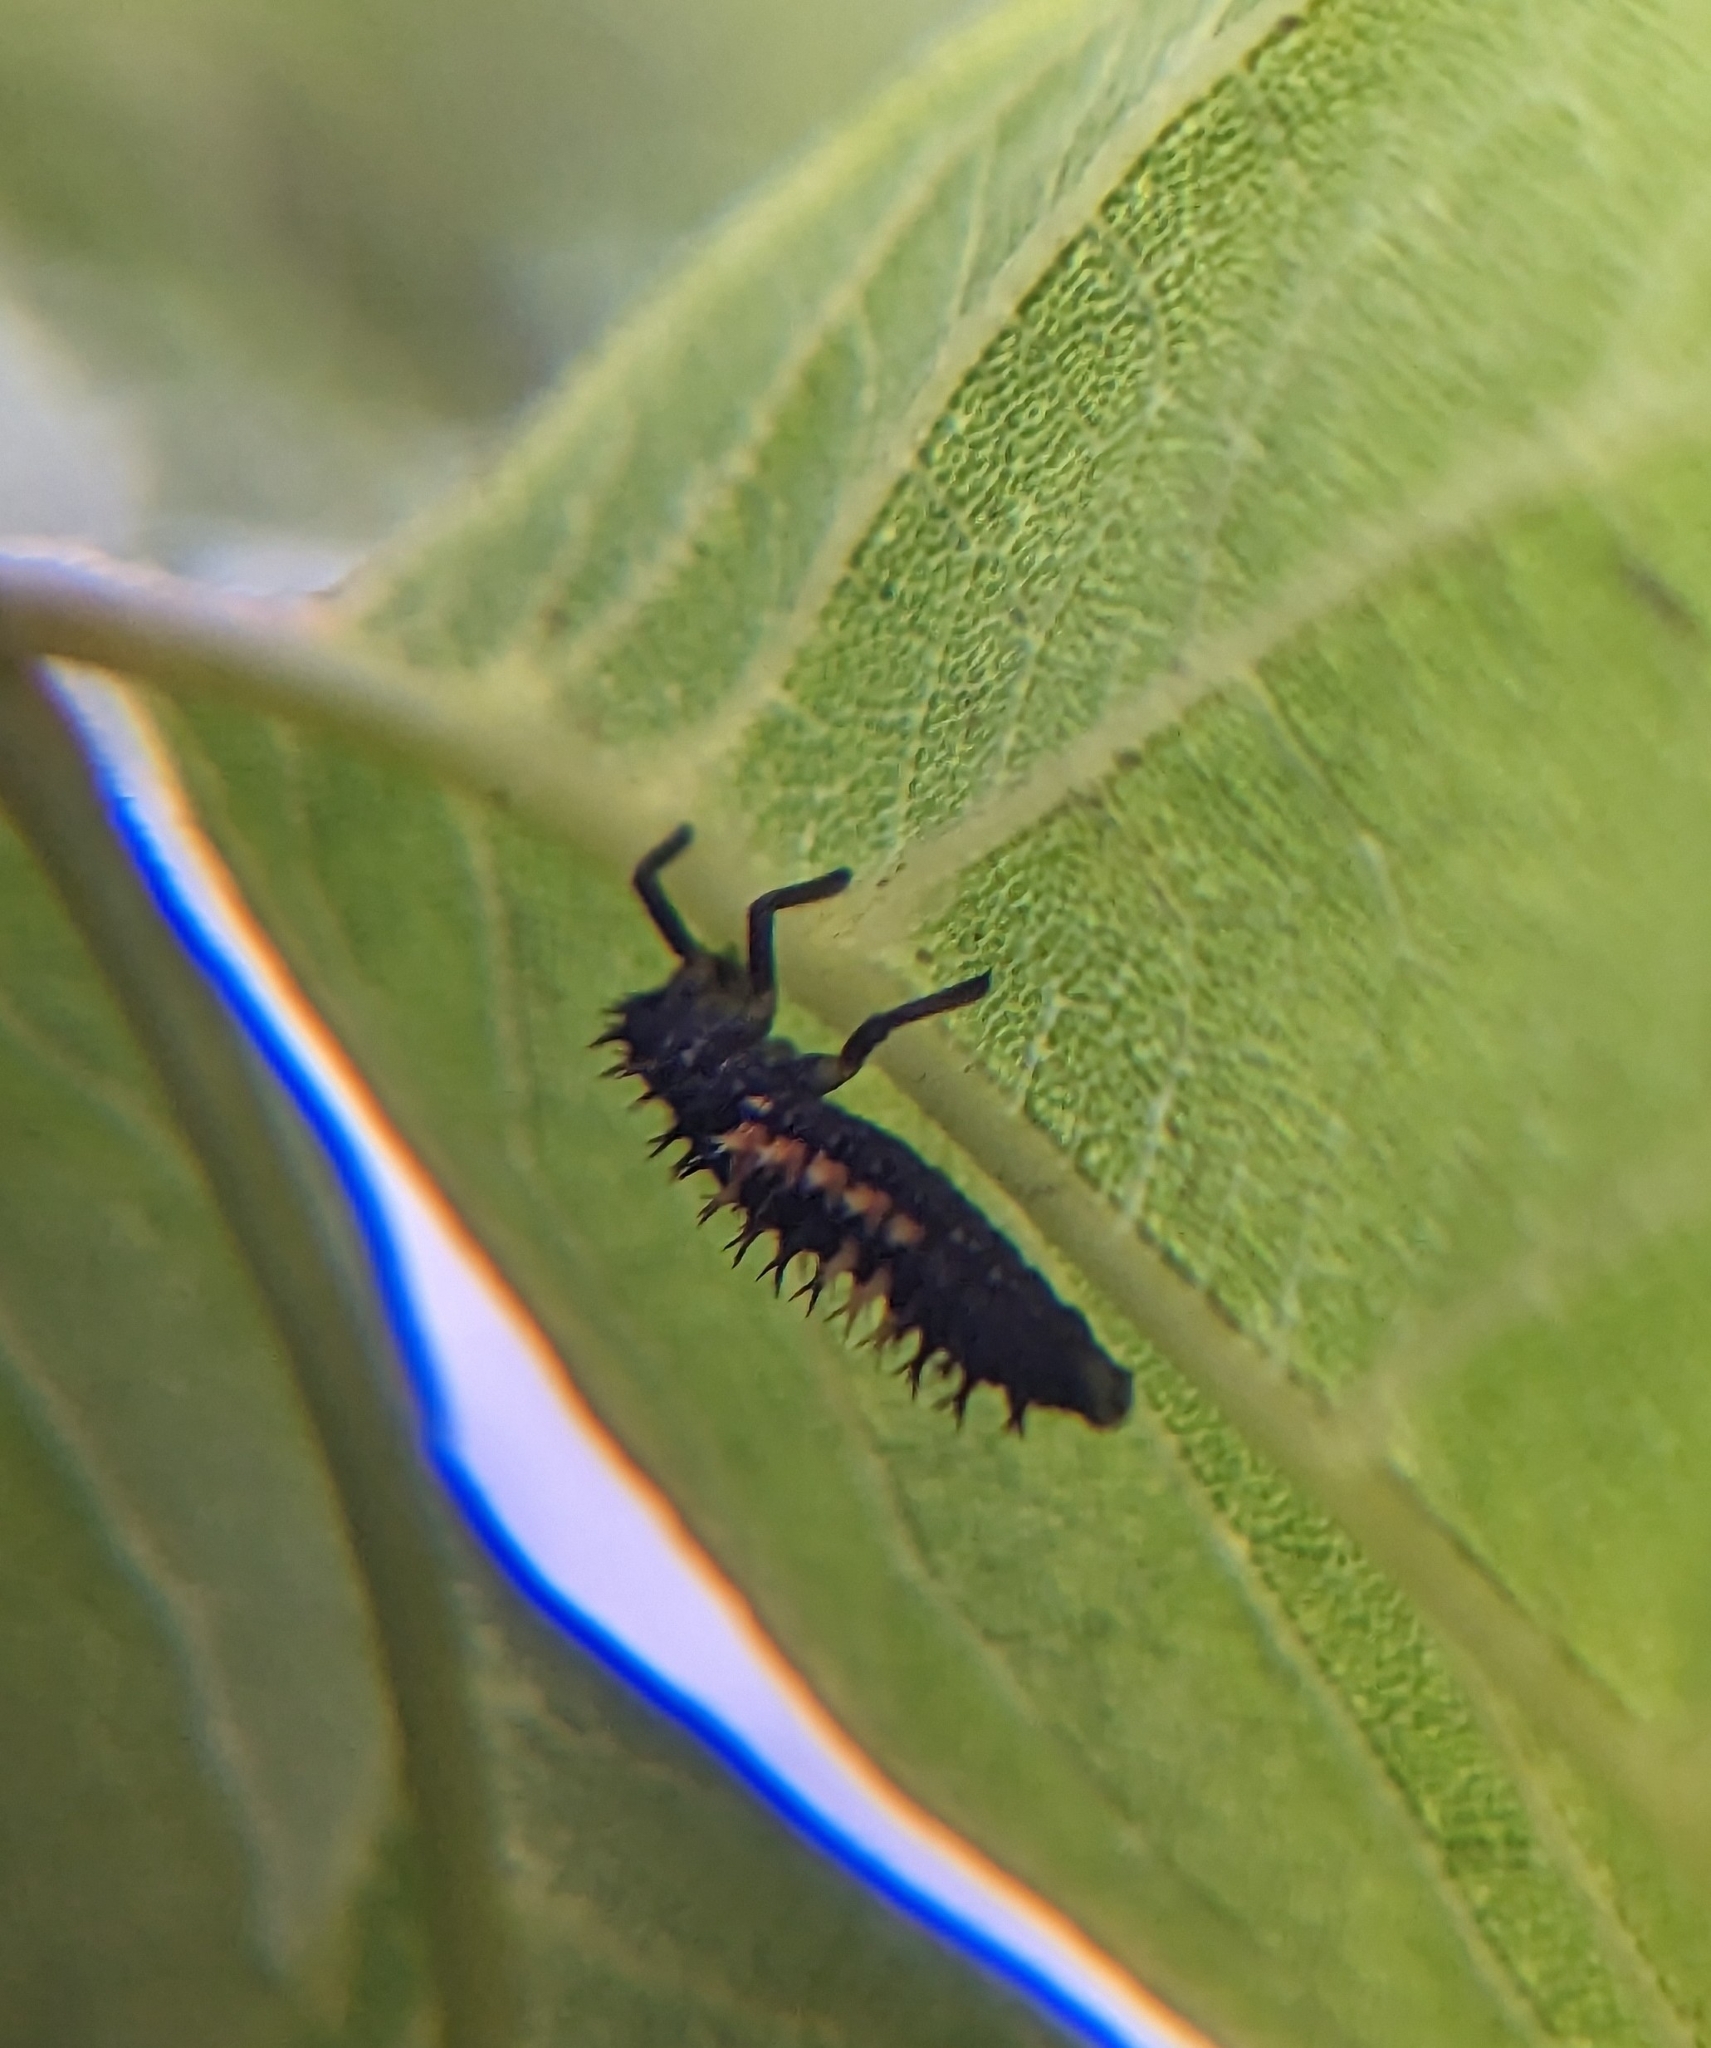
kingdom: Animalia
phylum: Arthropoda
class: Insecta
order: Coleoptera
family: Coccinellidae
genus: Harmonia
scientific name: Harmonia axyridis
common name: Harlequin ladybird
